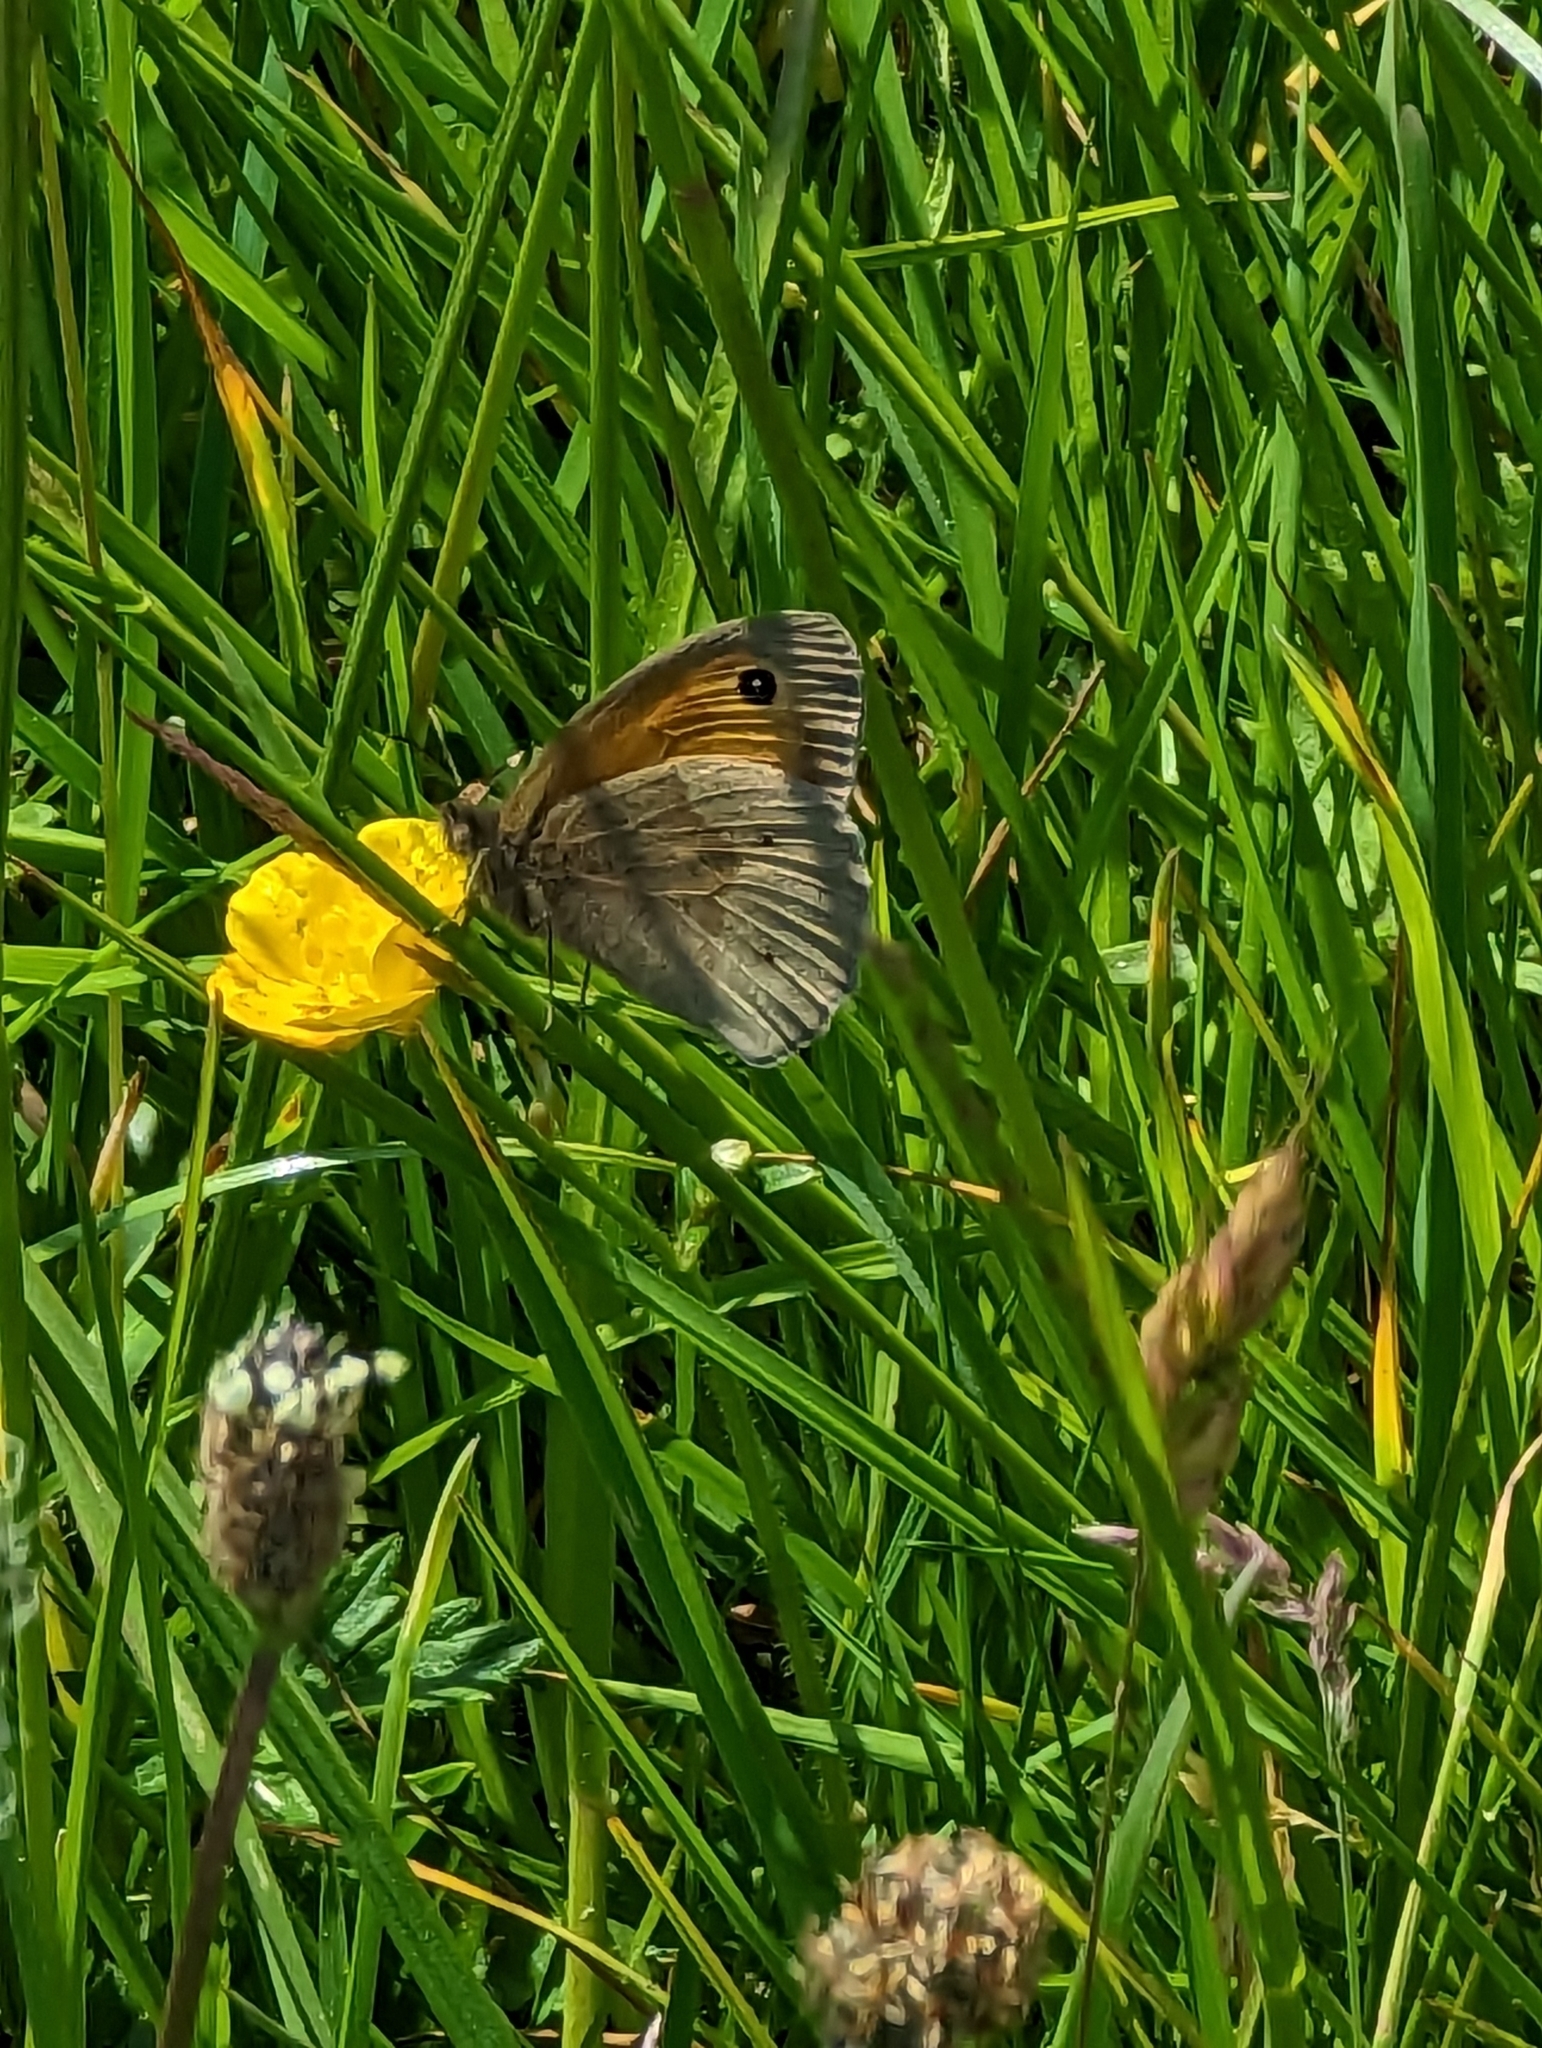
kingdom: Animalia
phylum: Arthropoda
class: Insecta
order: Lepidoptera
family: Nymphalidae
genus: Maniola
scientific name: Maniola jurtina
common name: Meadow brown
